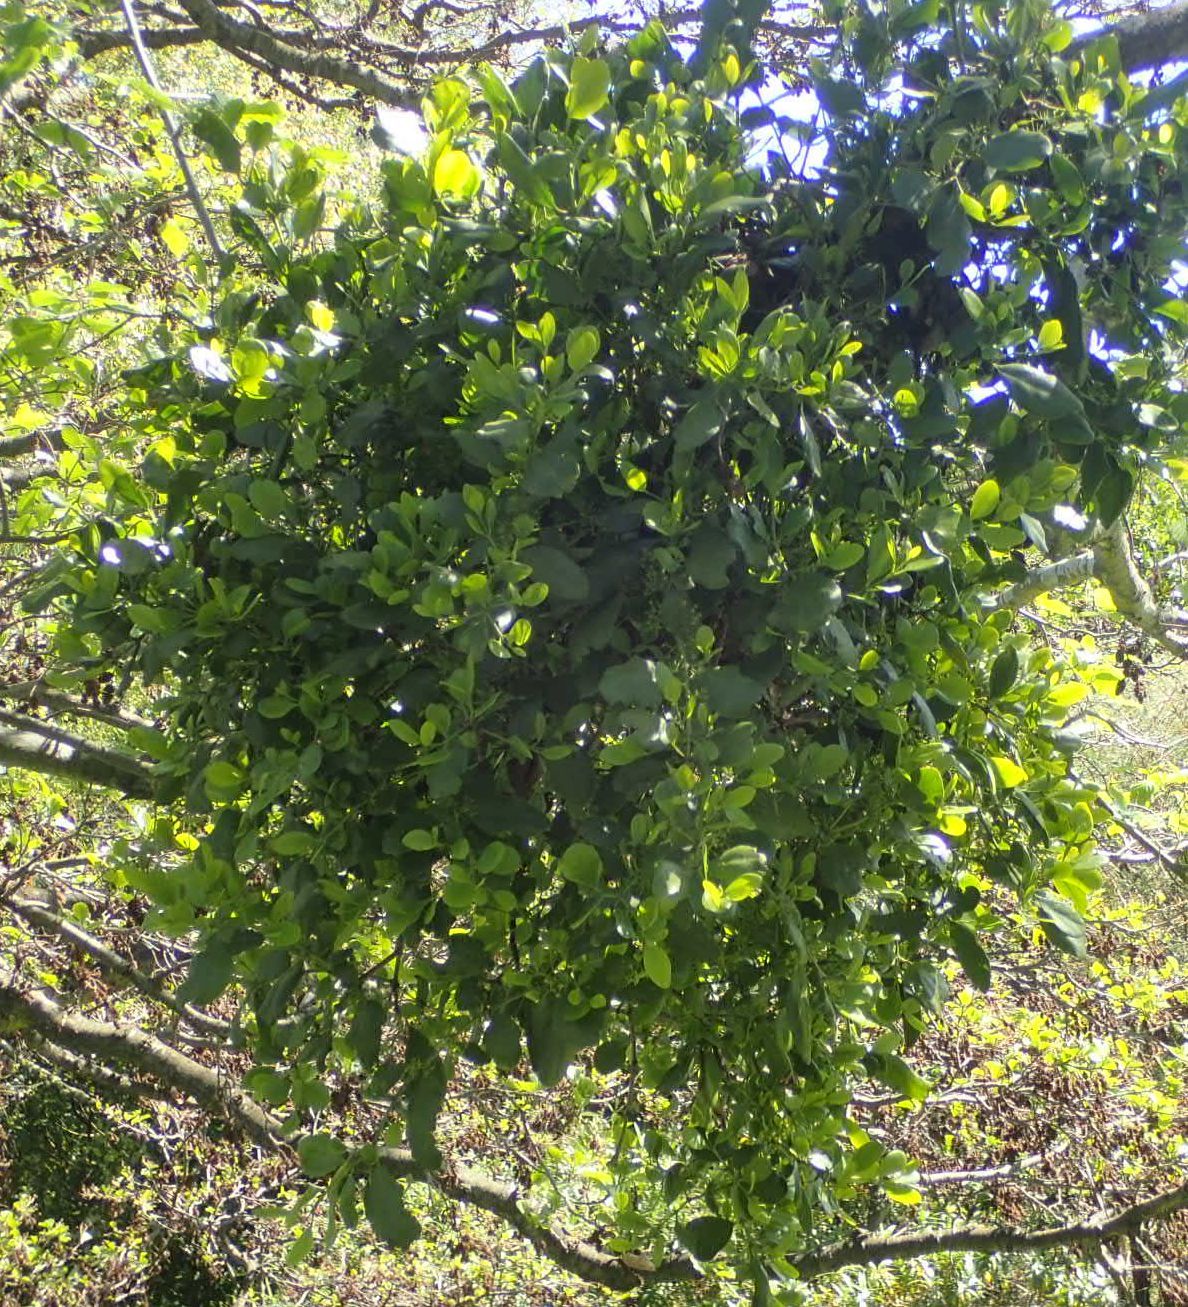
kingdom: Plantae
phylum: Tracheophyta
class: Magnoliopsida
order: Santalales
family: Loranthaceae
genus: Ileostylus
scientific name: Ileostylus micranthus
